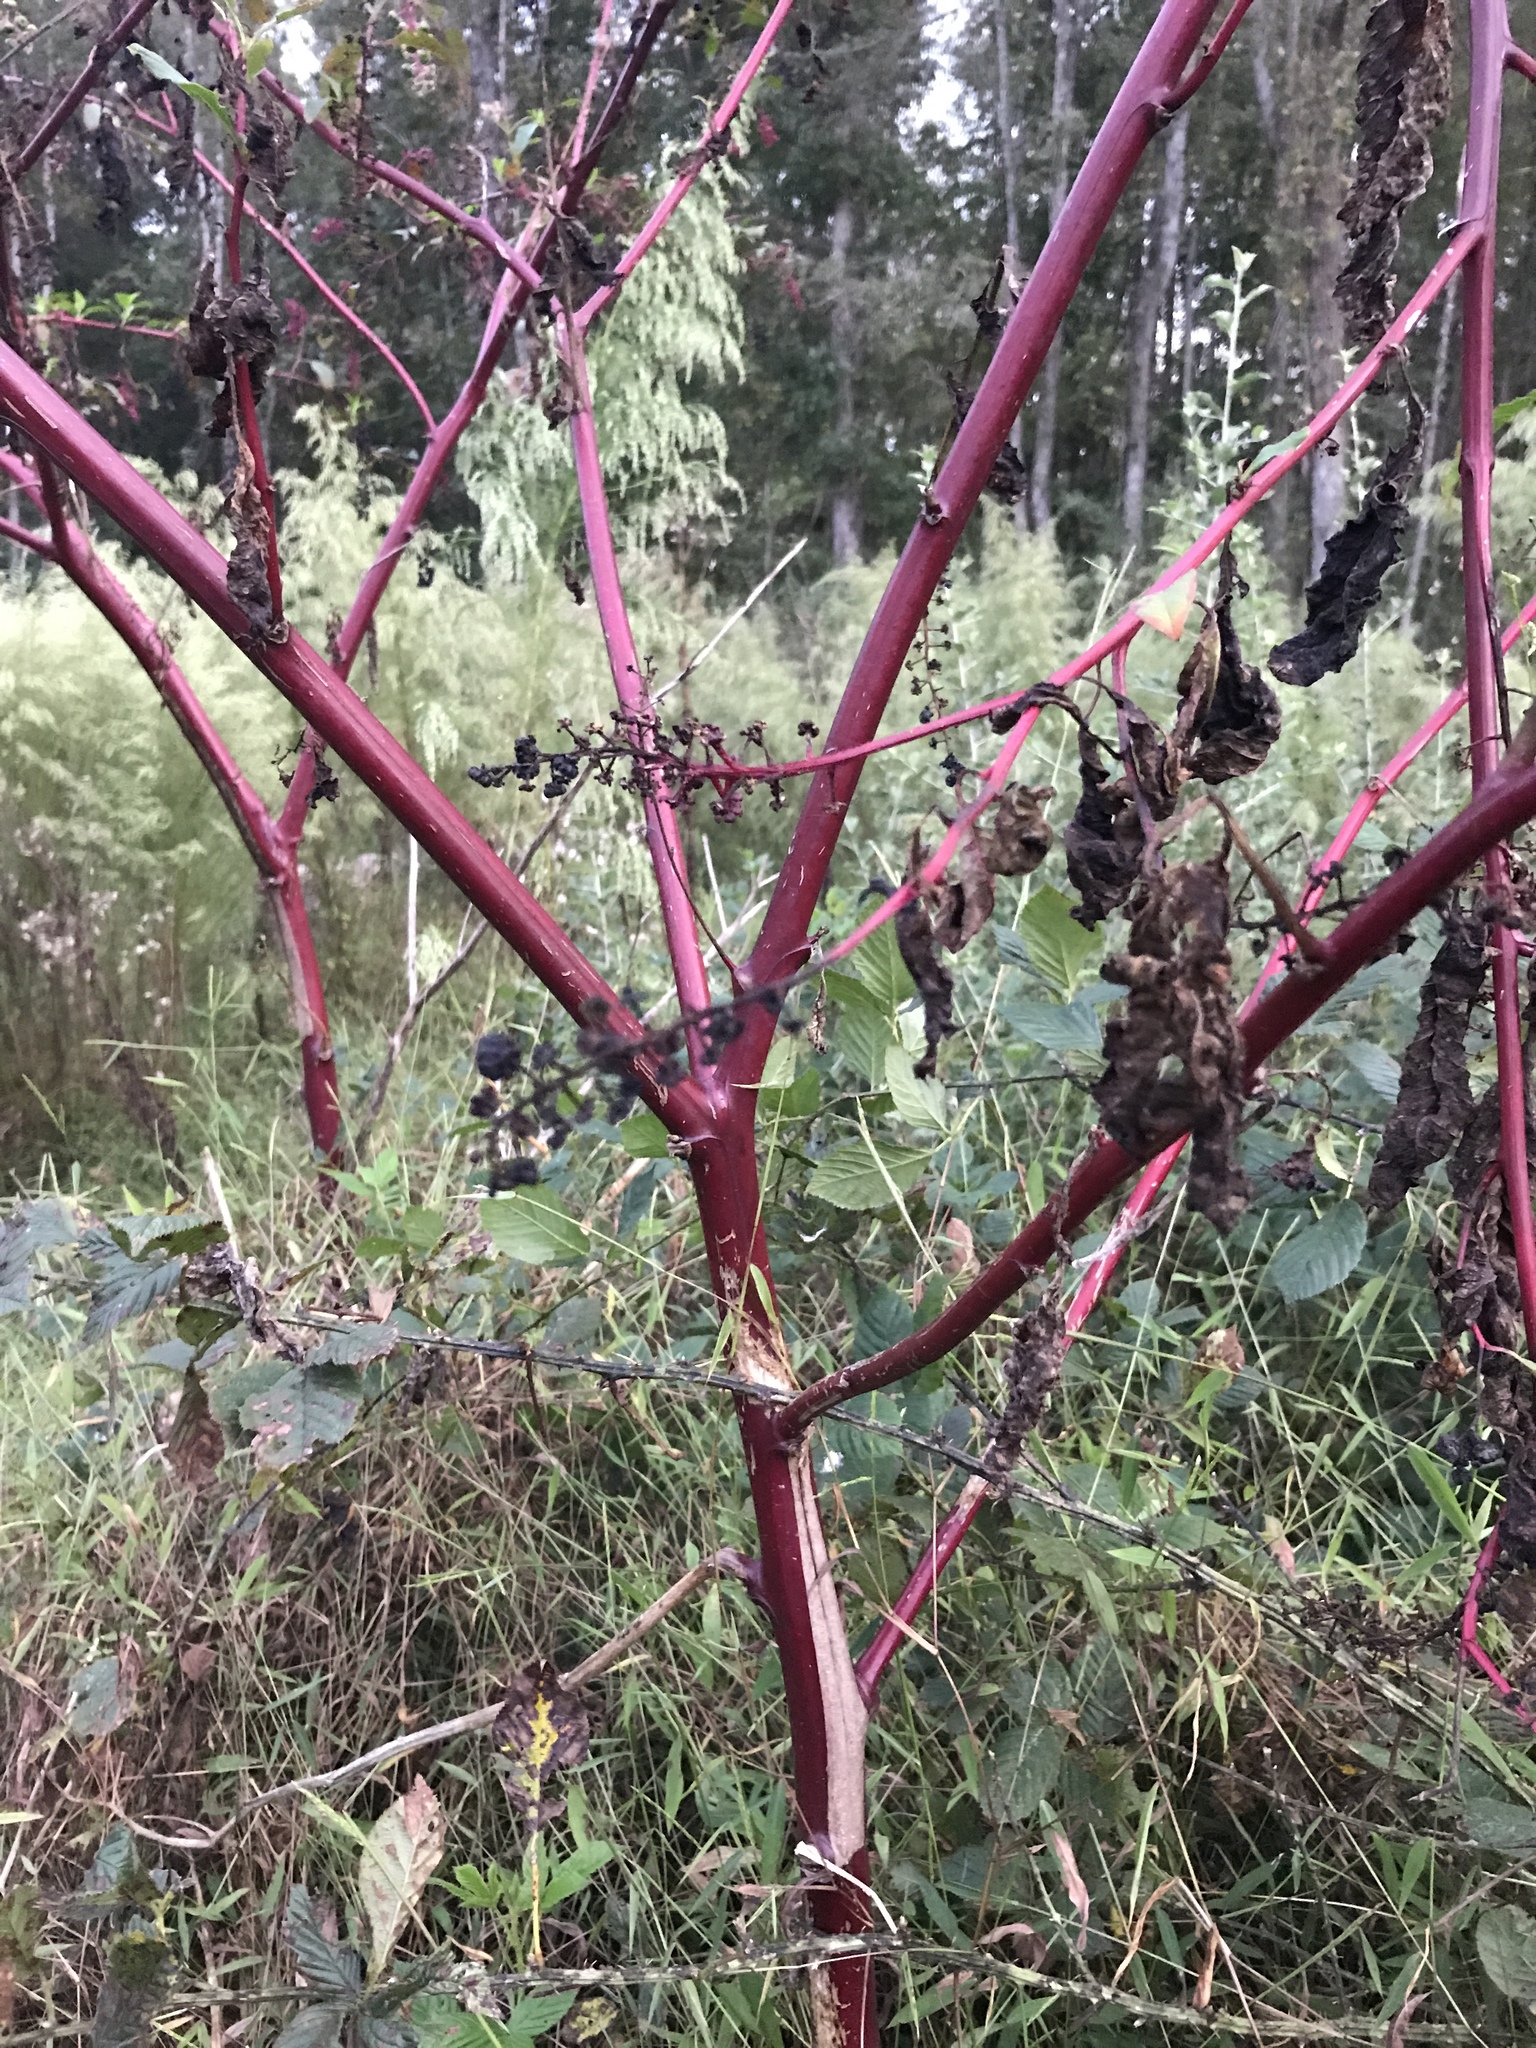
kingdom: Plantae
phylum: Tracheophyta
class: Magnoliopsida
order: Caryophyllales
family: Phytolaccaceae
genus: Phytolacca
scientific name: Phytolacca americana
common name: American pokeweed
